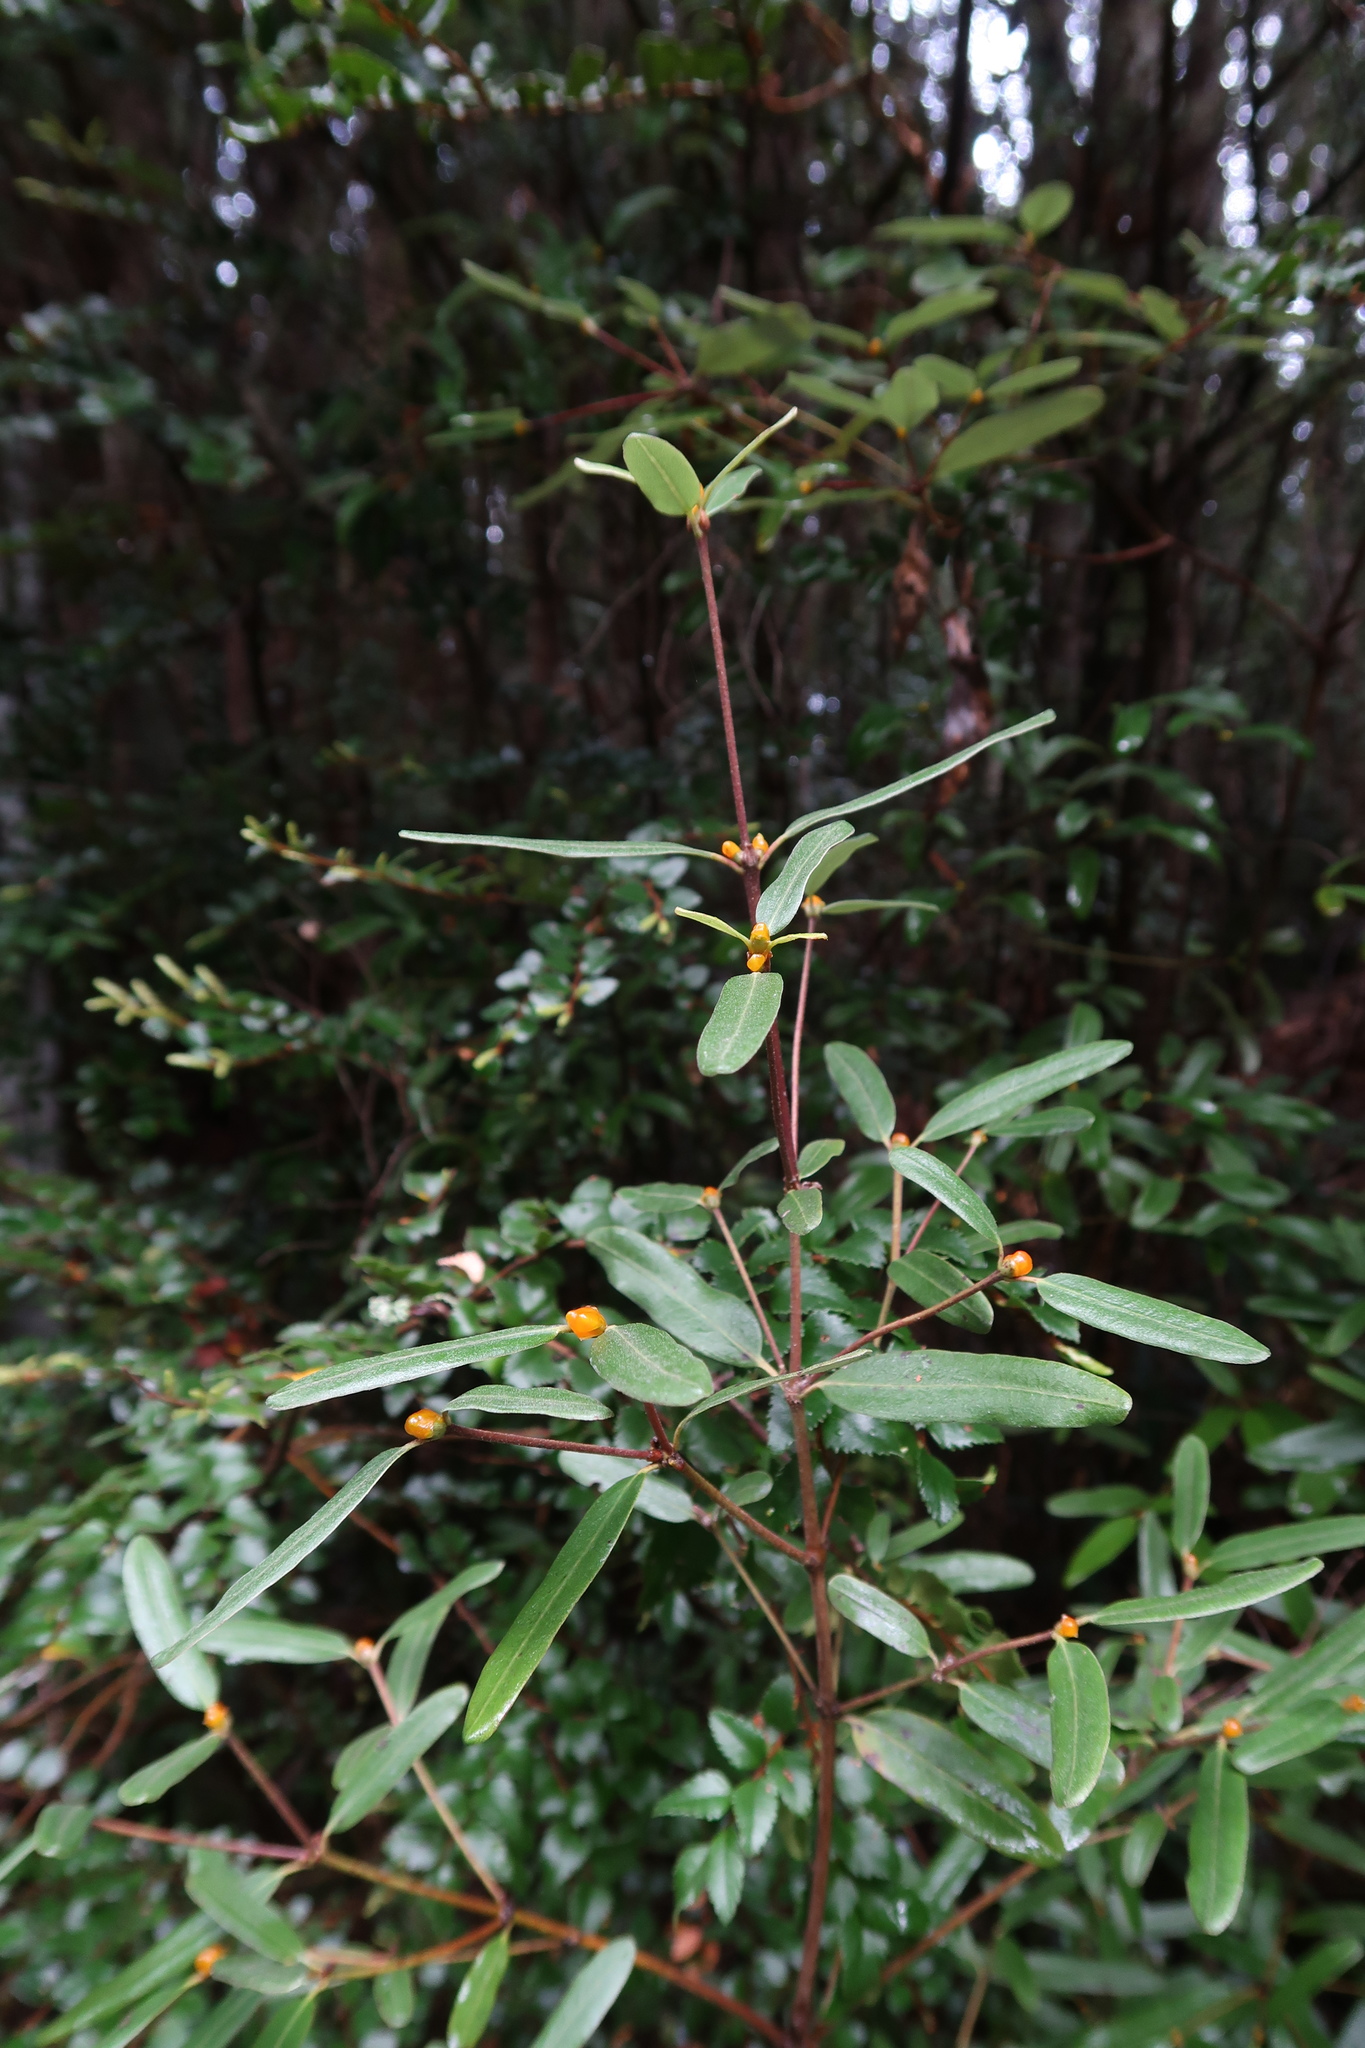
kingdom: Plantae
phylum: Tracheophyta
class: Magnoliopsida
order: Oxalidales
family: Cunoniaceae
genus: Eucryphia
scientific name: Eucryphia lucida
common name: Leatherwood
